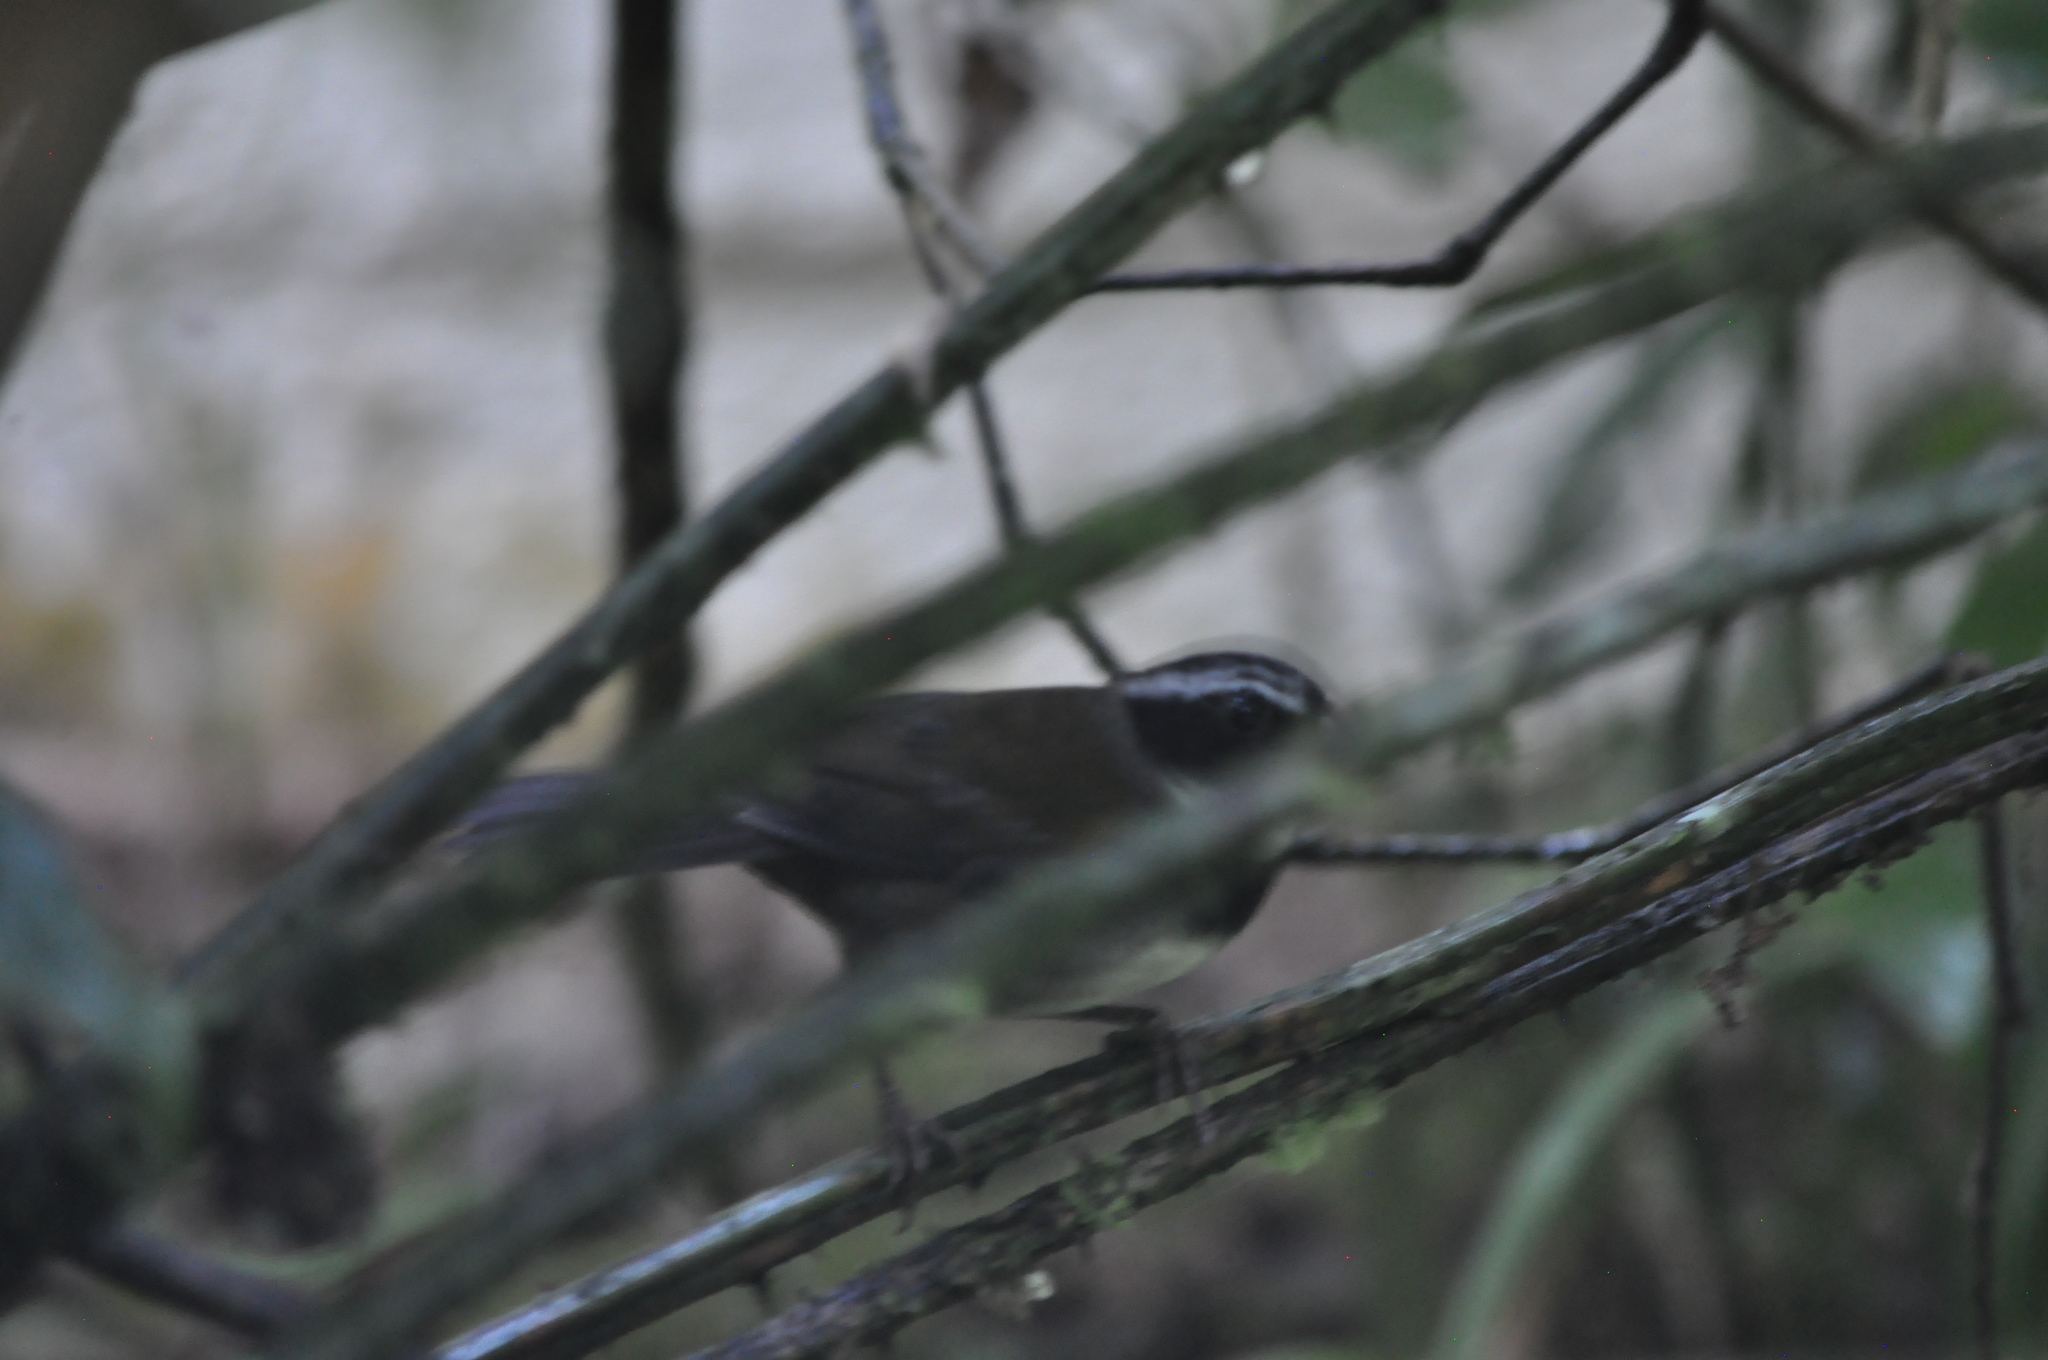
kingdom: Animalia
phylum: Chordata
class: Aves
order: Passeriformes
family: Passerellidae
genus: Arremon
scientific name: Arremon aurantiirostris
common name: Orange-billed sparrow
